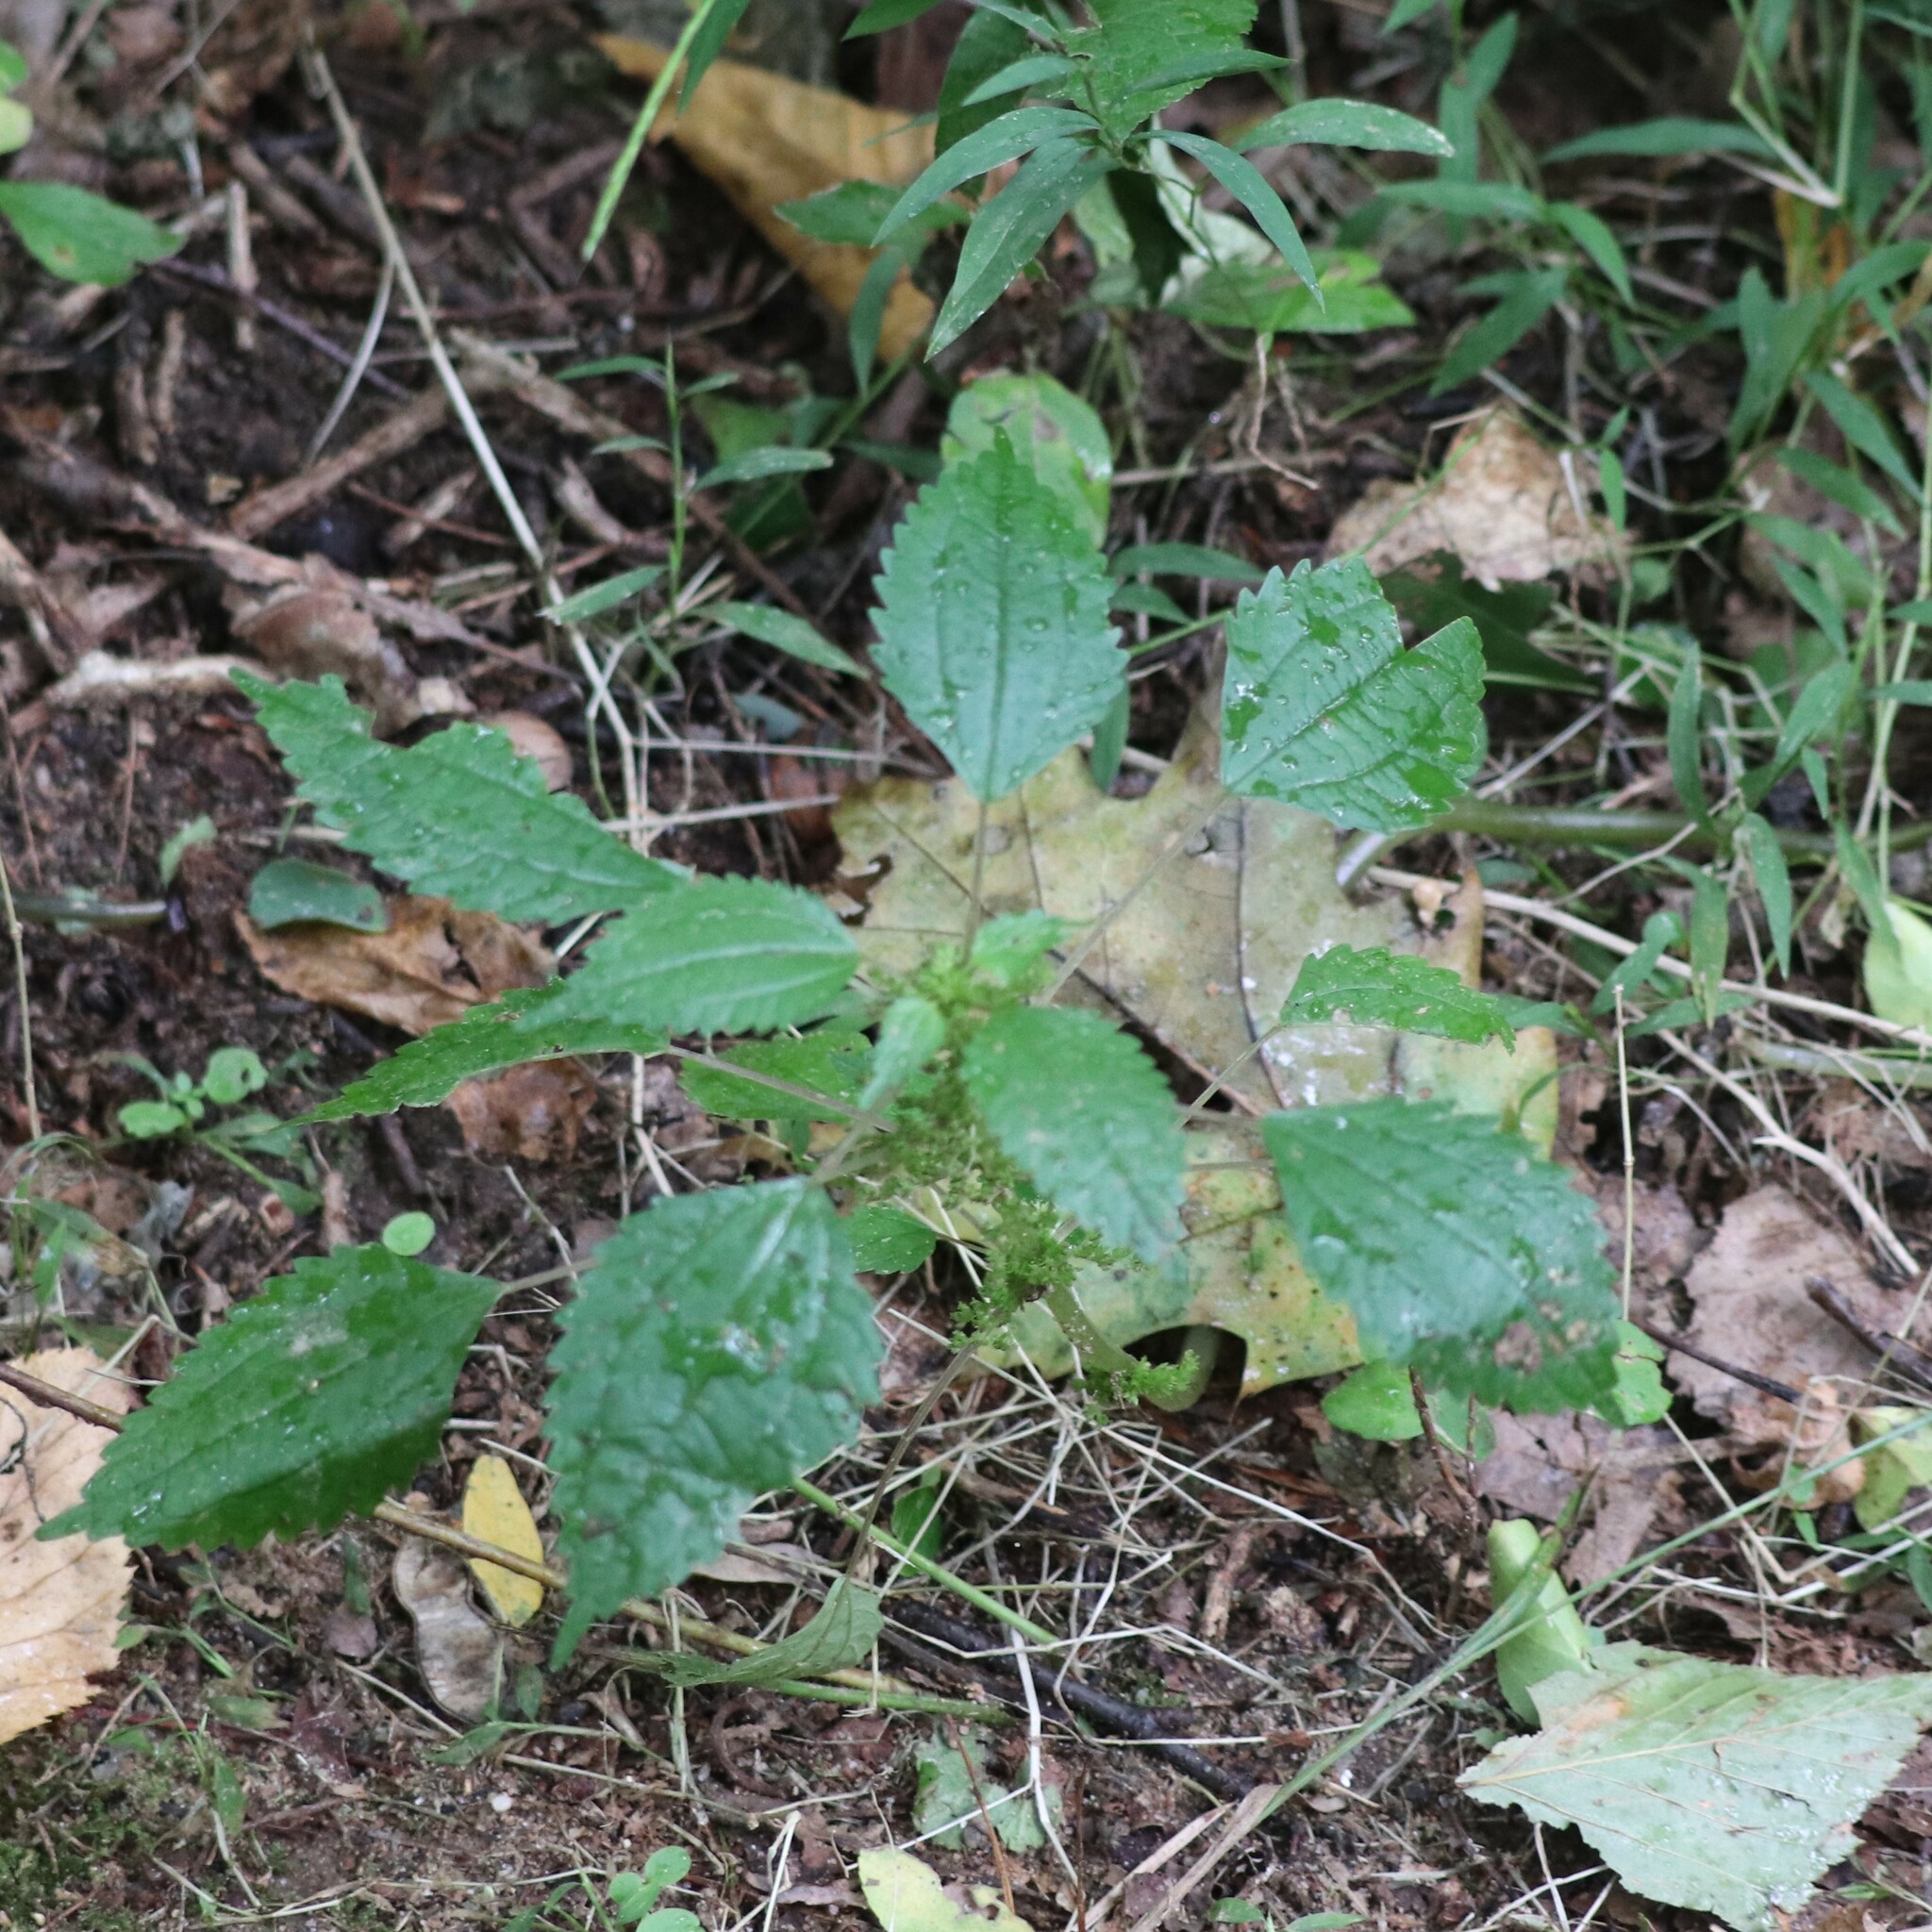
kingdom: Plantae
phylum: Tracheophyta
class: Magnoliopsida
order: Rosales
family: Urticaceae
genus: Pilea
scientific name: Pilea pumila
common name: Clearweed
